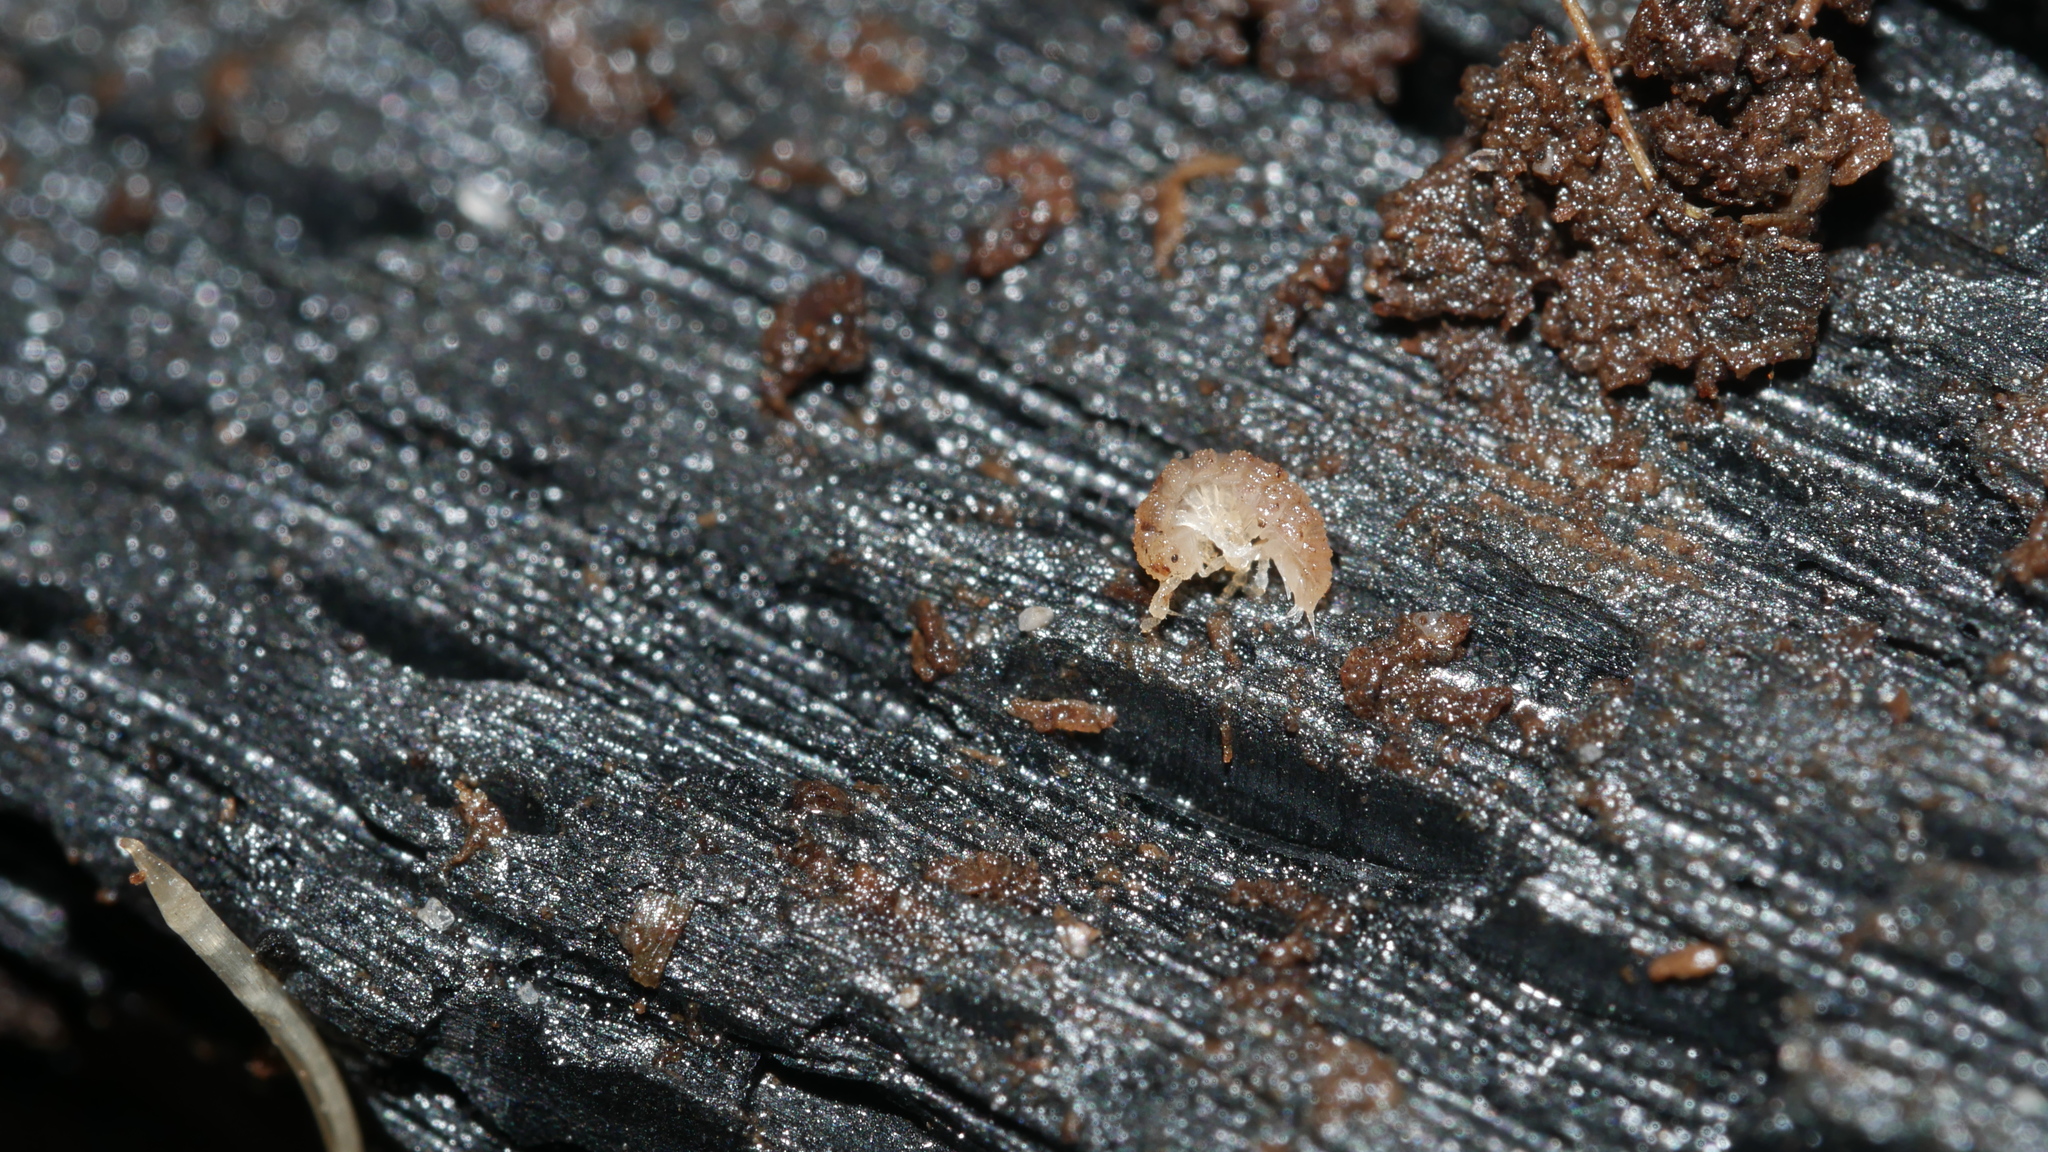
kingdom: Animalia
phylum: Arthropoda
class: Malacostraca
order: Isopoda
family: Trichoniscidae
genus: Haplophthalmus
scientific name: Haplophthalmus danicus
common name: Pillbug
